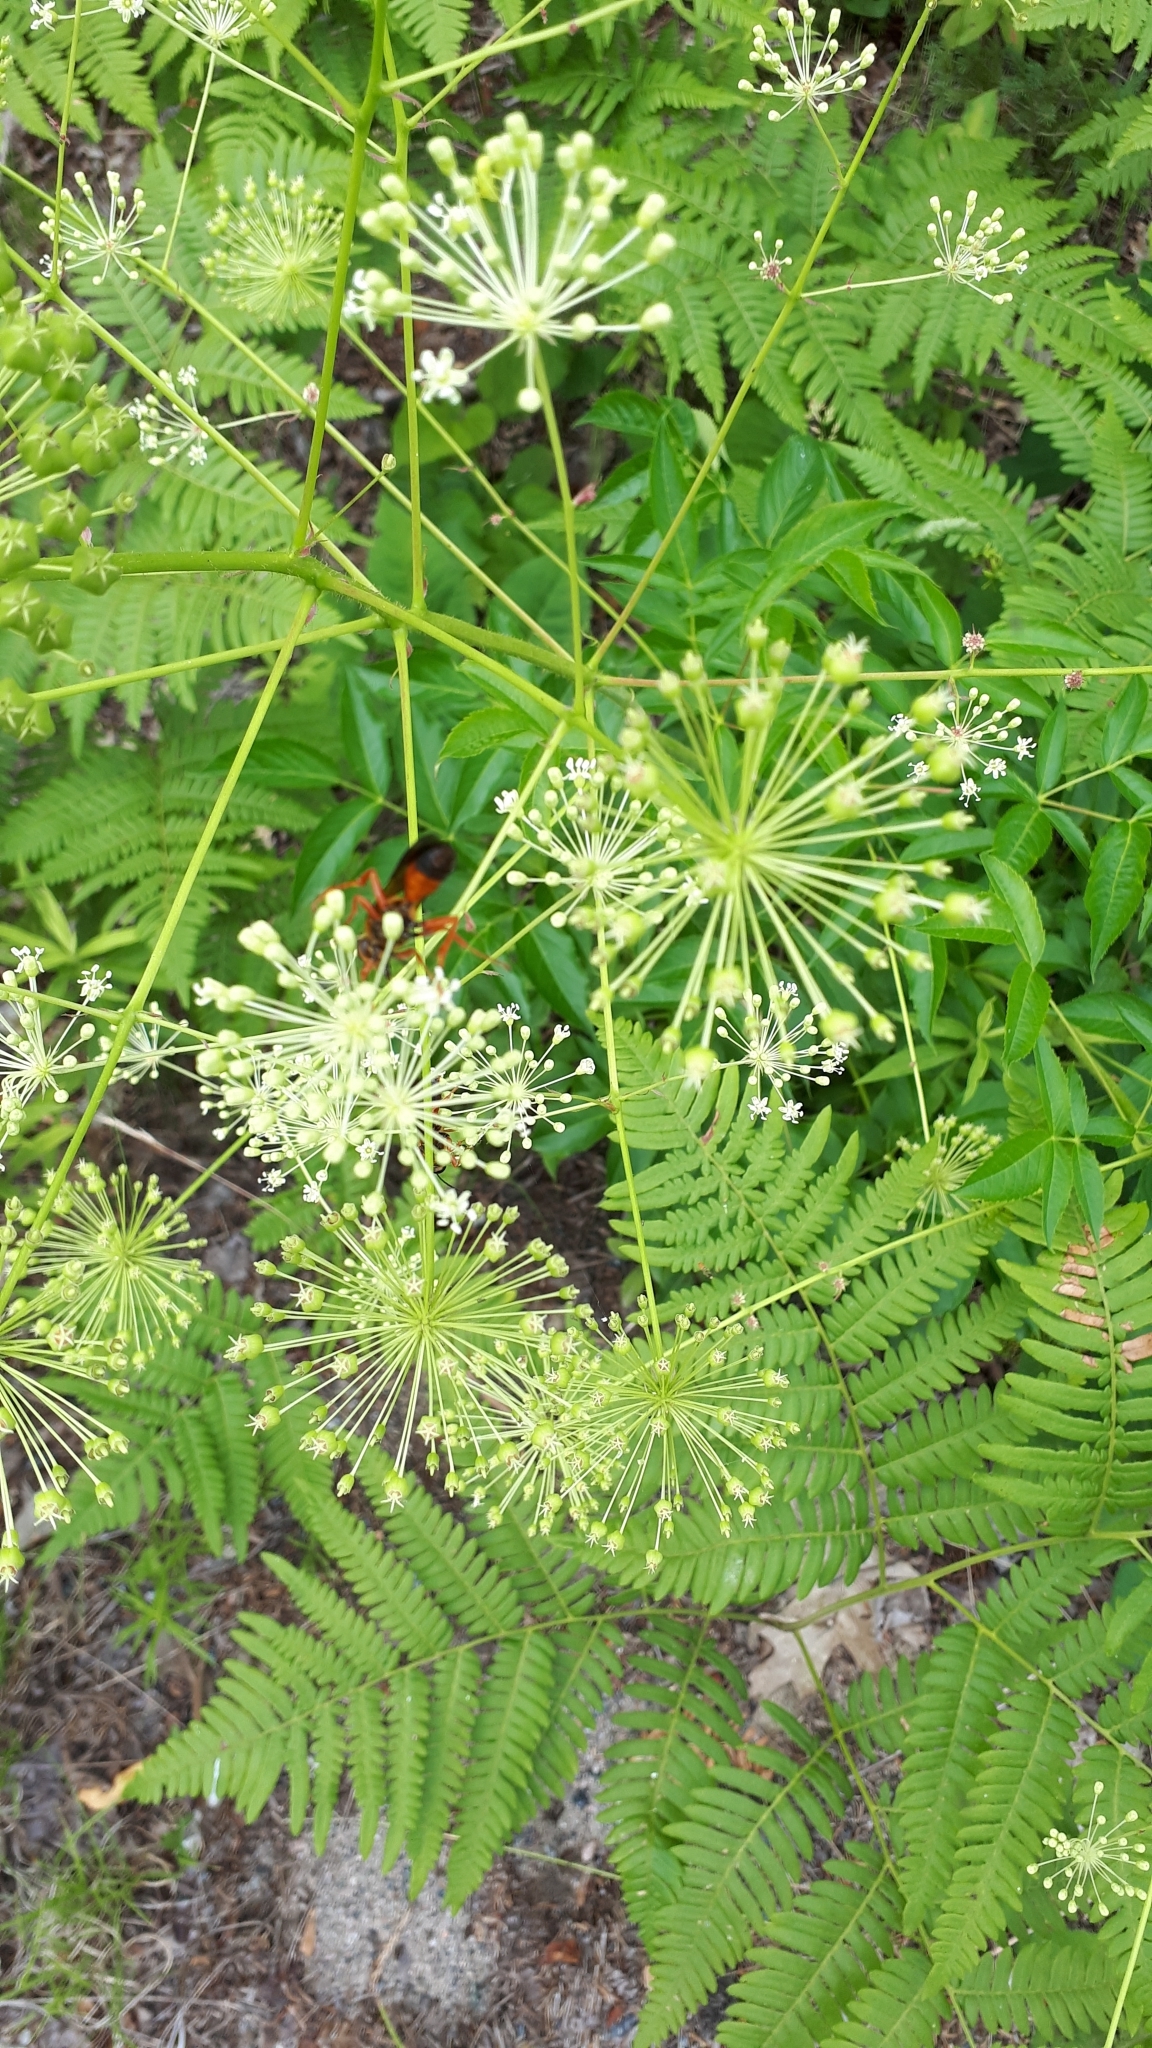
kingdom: Animalia
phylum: Arthropoda
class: Insecta
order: Hymenoptera
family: Sphecidae
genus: Sphex
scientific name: Sphex ichneumoneus
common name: Great golden digger wasp
